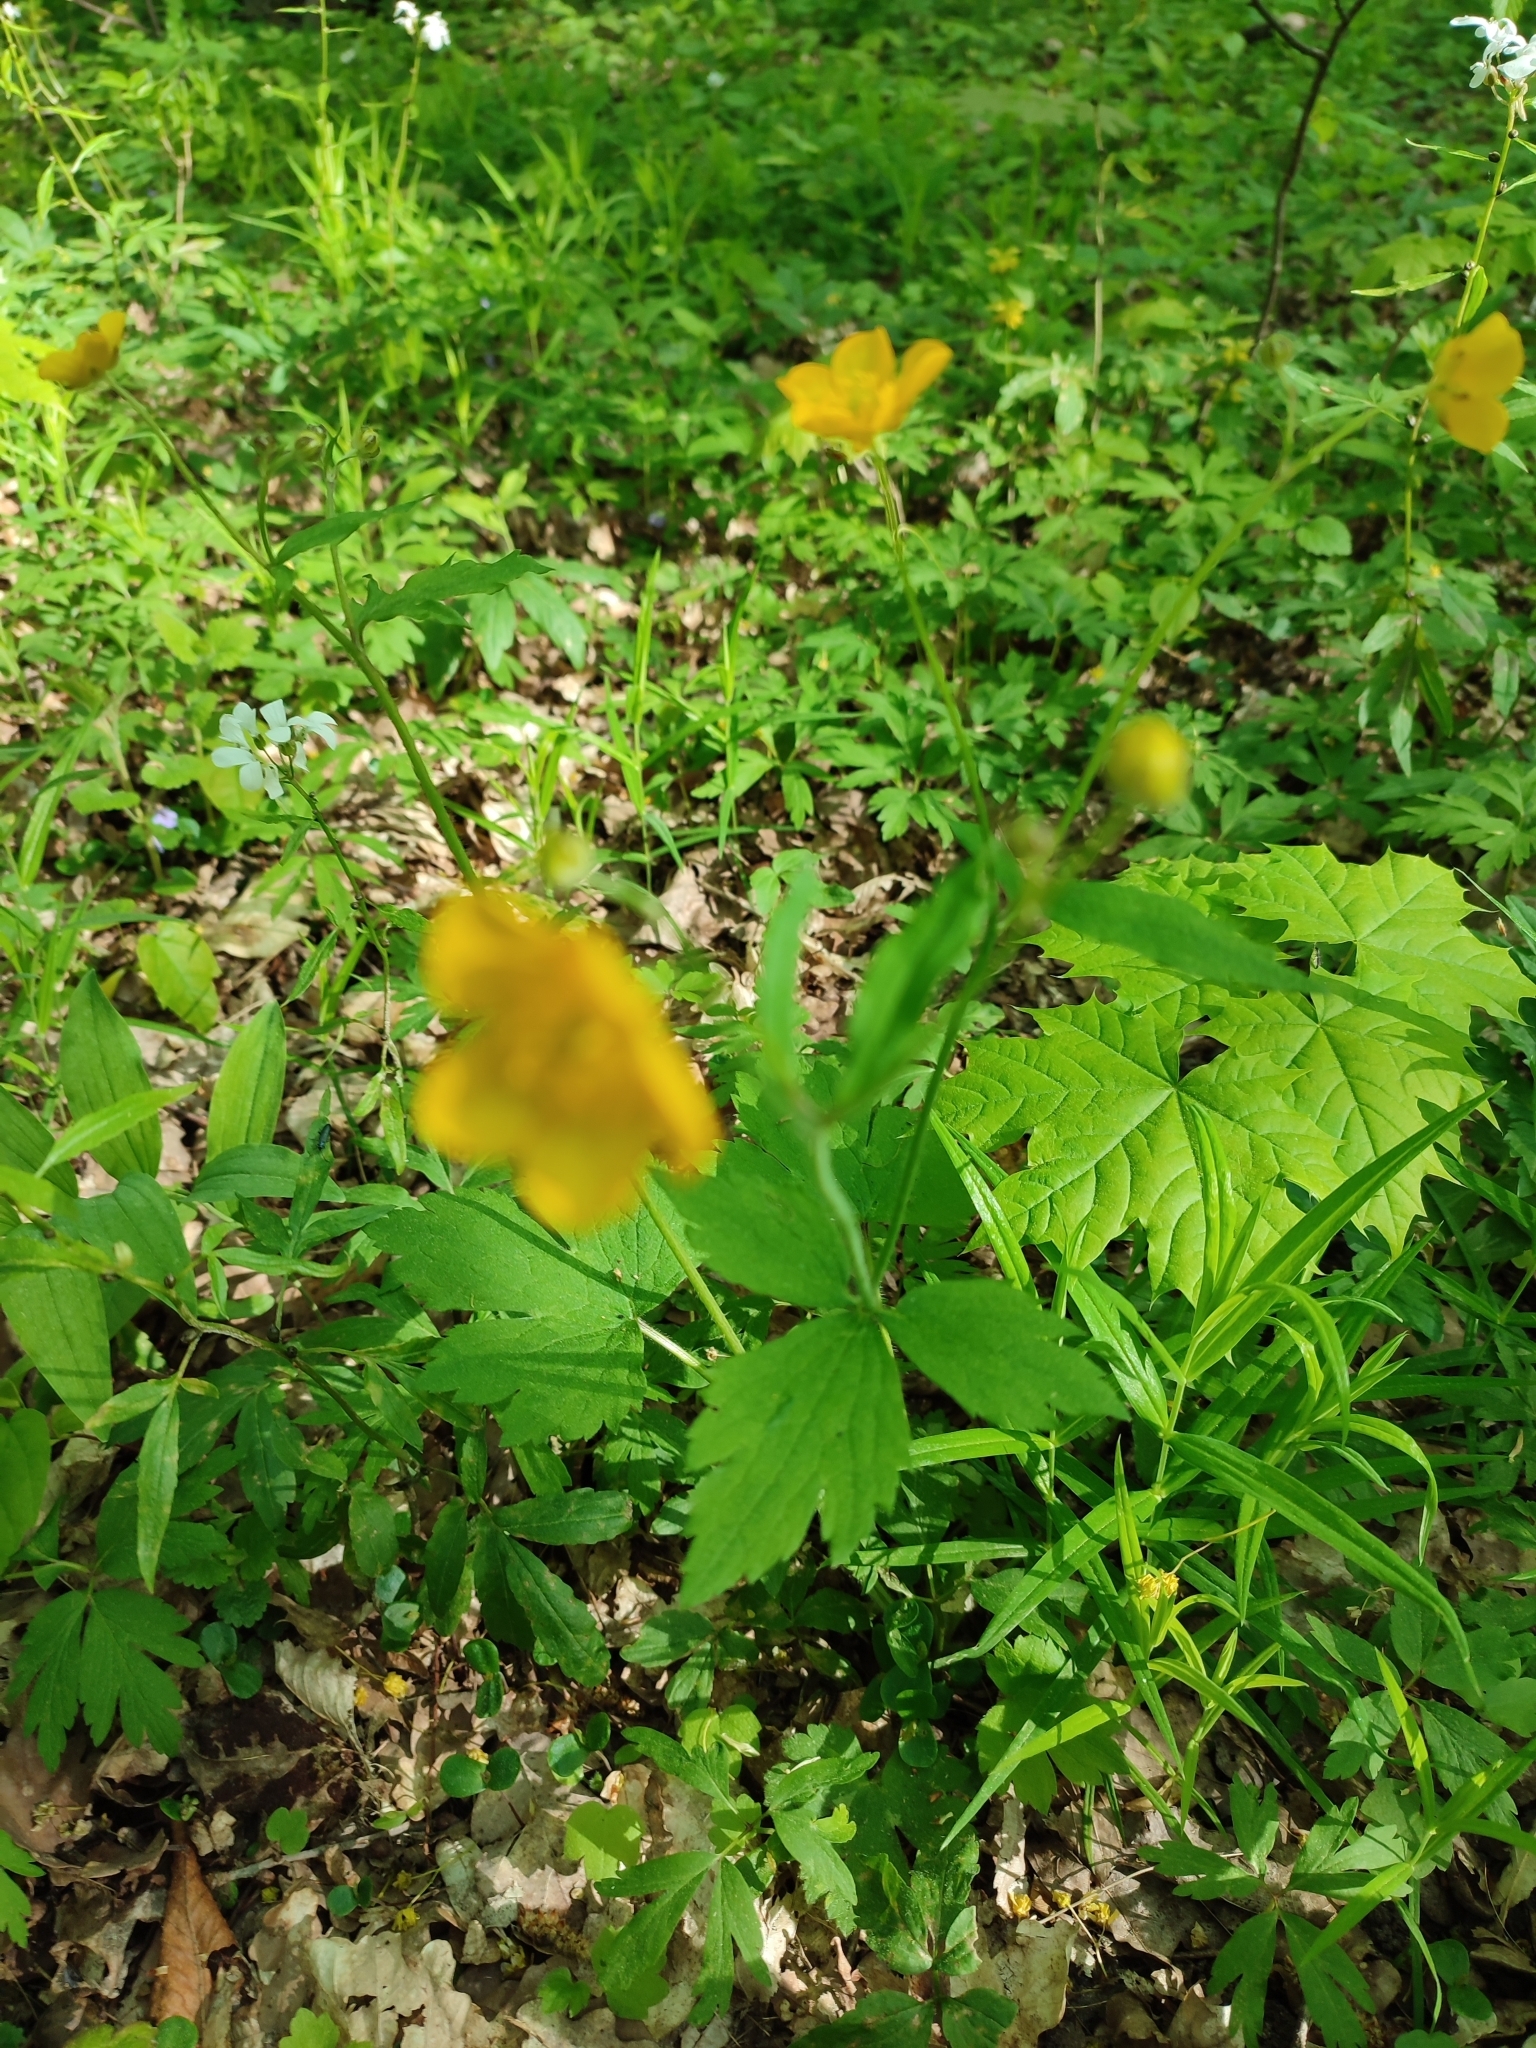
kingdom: Plantae
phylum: Tracheophyta
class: Magnoliopsida
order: Ranunculales
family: Ranunculaceae
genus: Ranunculus
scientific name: Ranunculus lanuginosus
